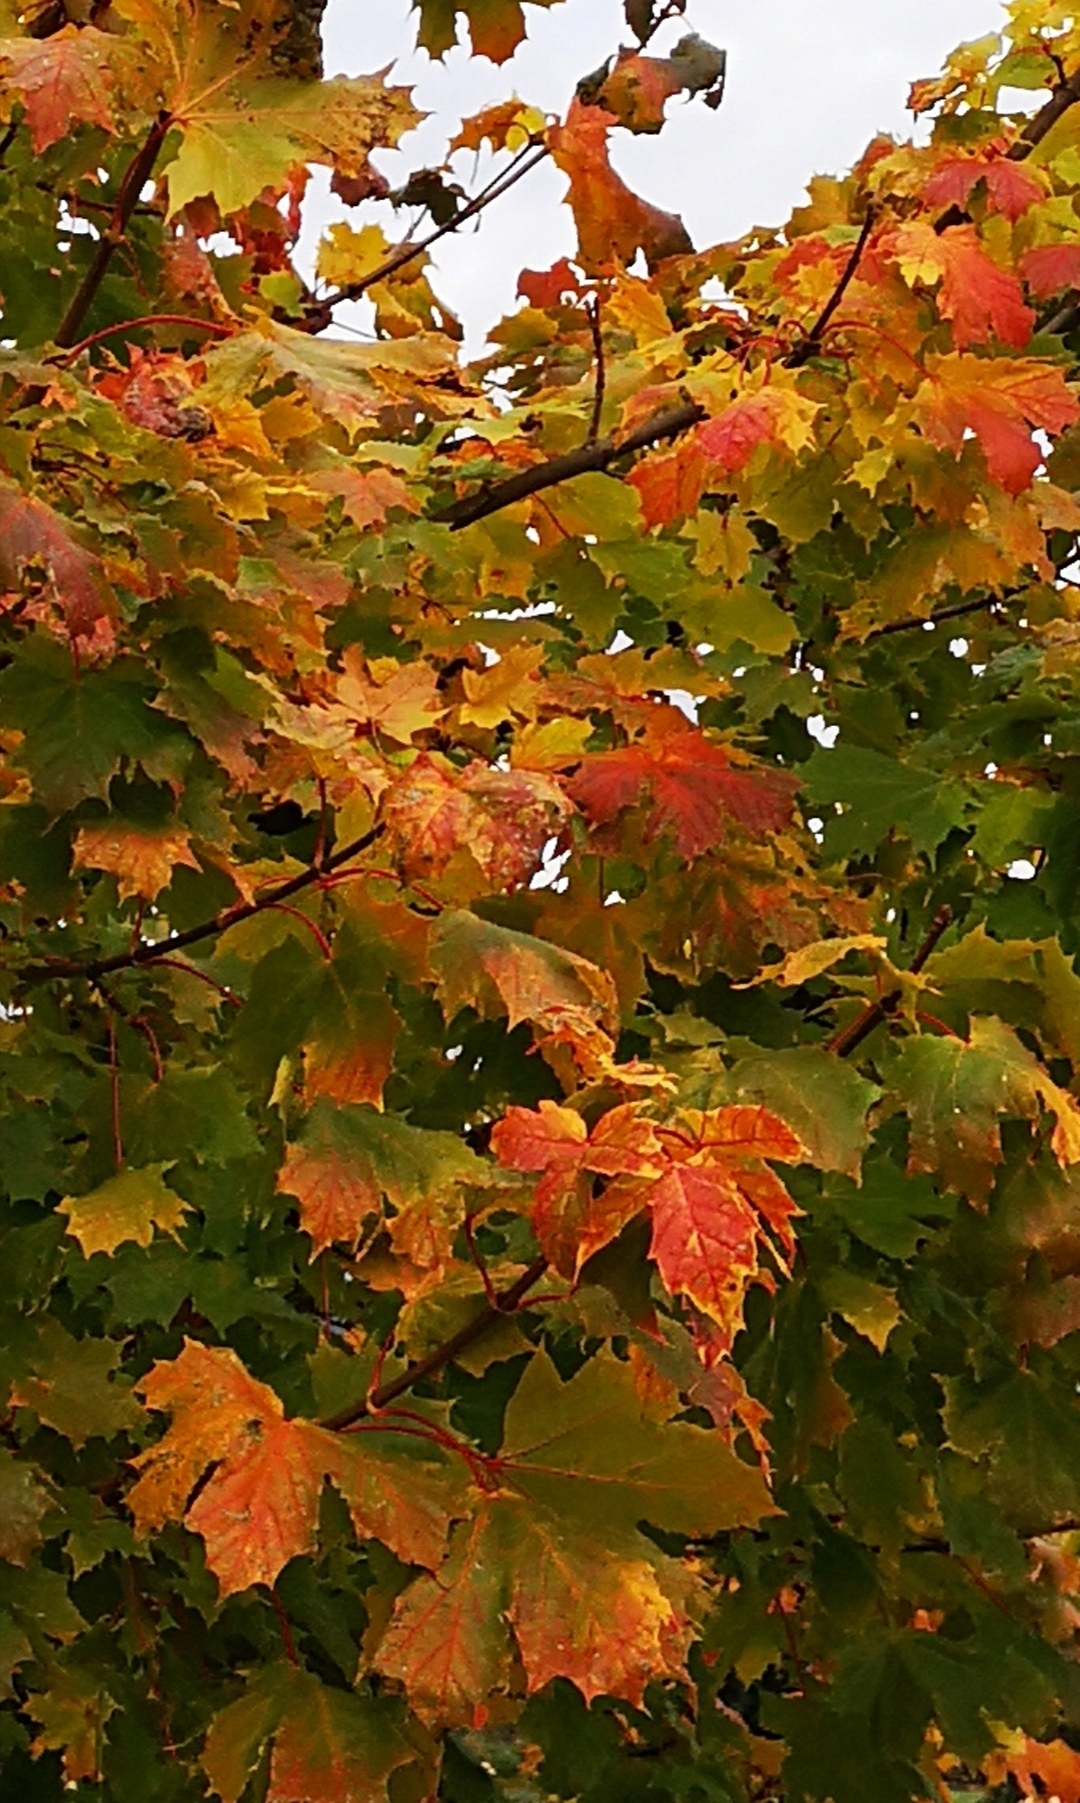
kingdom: Plantae
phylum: Tracheophyta
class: Magnoliopsida
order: Sapindales
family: Sapindaceae
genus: Acer
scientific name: Acer platanoides
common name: Norway maple
